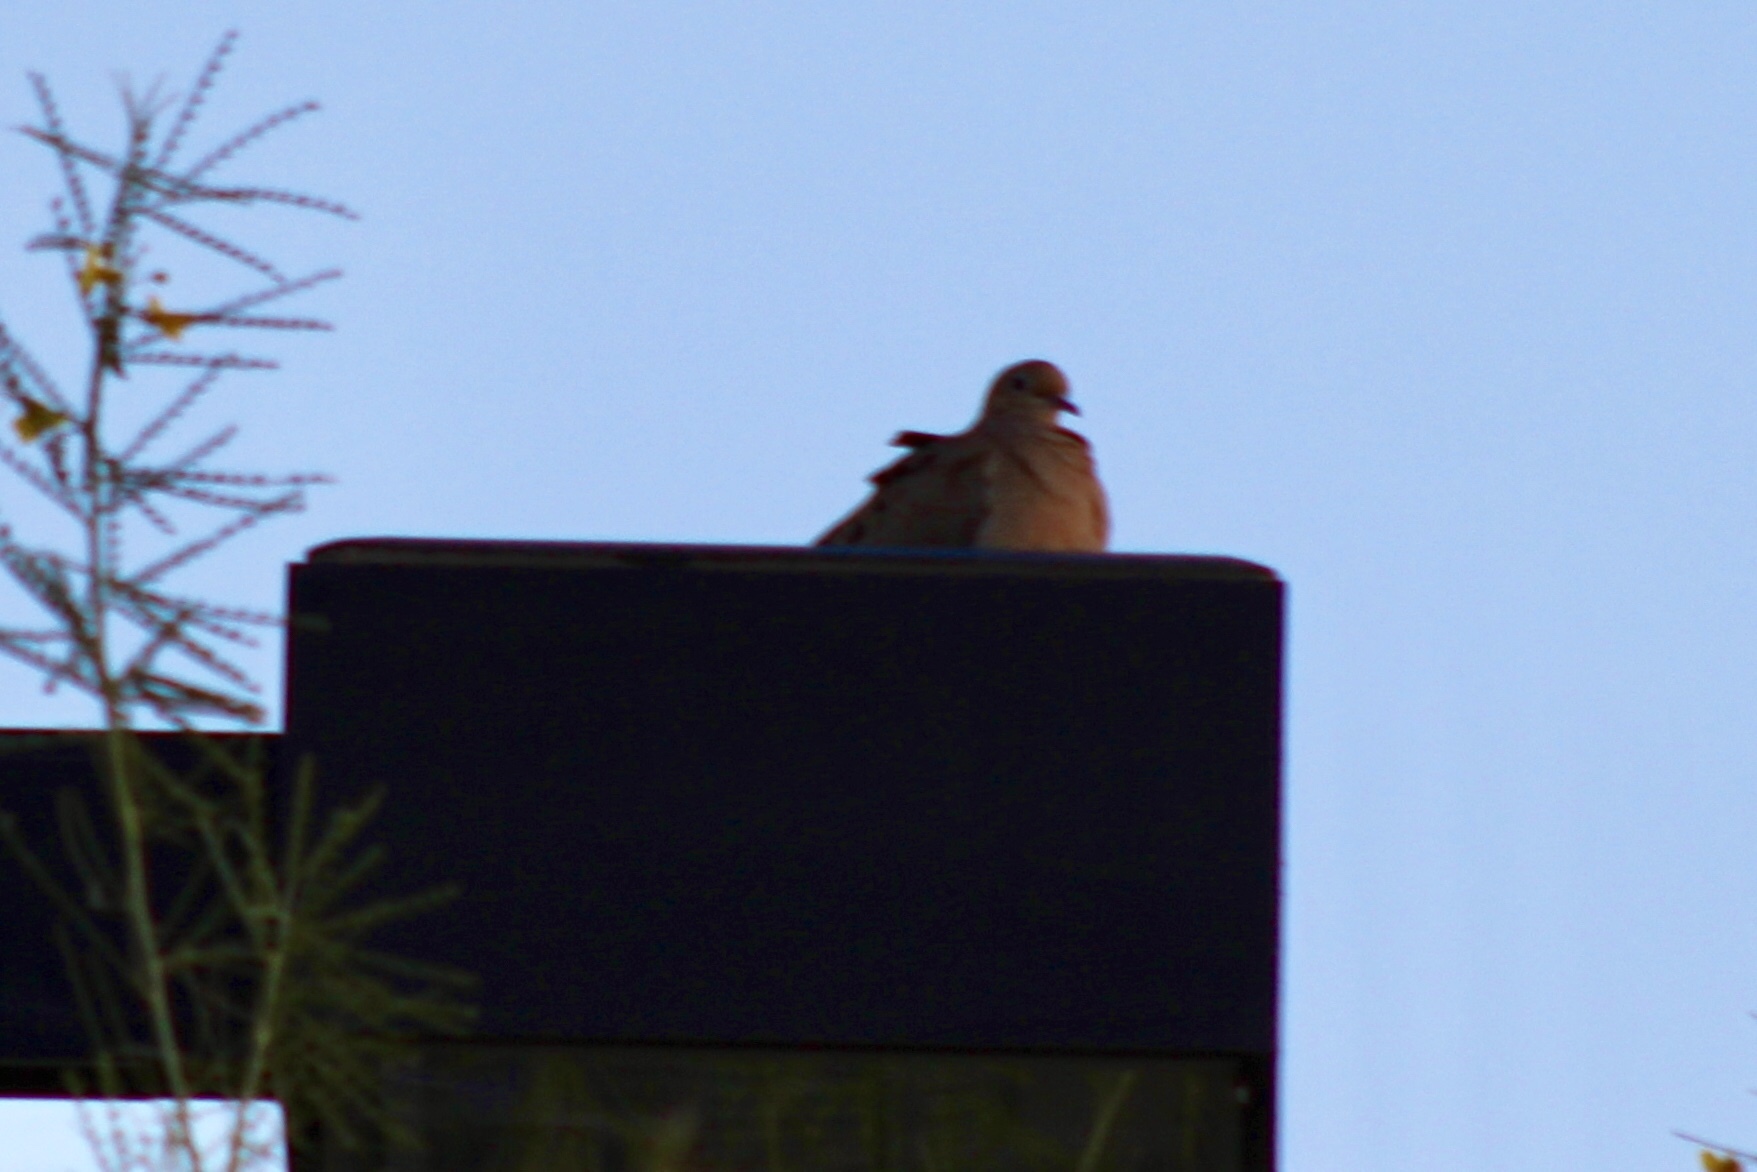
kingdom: Animalia
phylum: Chordata
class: Aves
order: Columbiformes
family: Columbidae
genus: Zenaida
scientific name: Zenaida macroura
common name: Mourning dove
